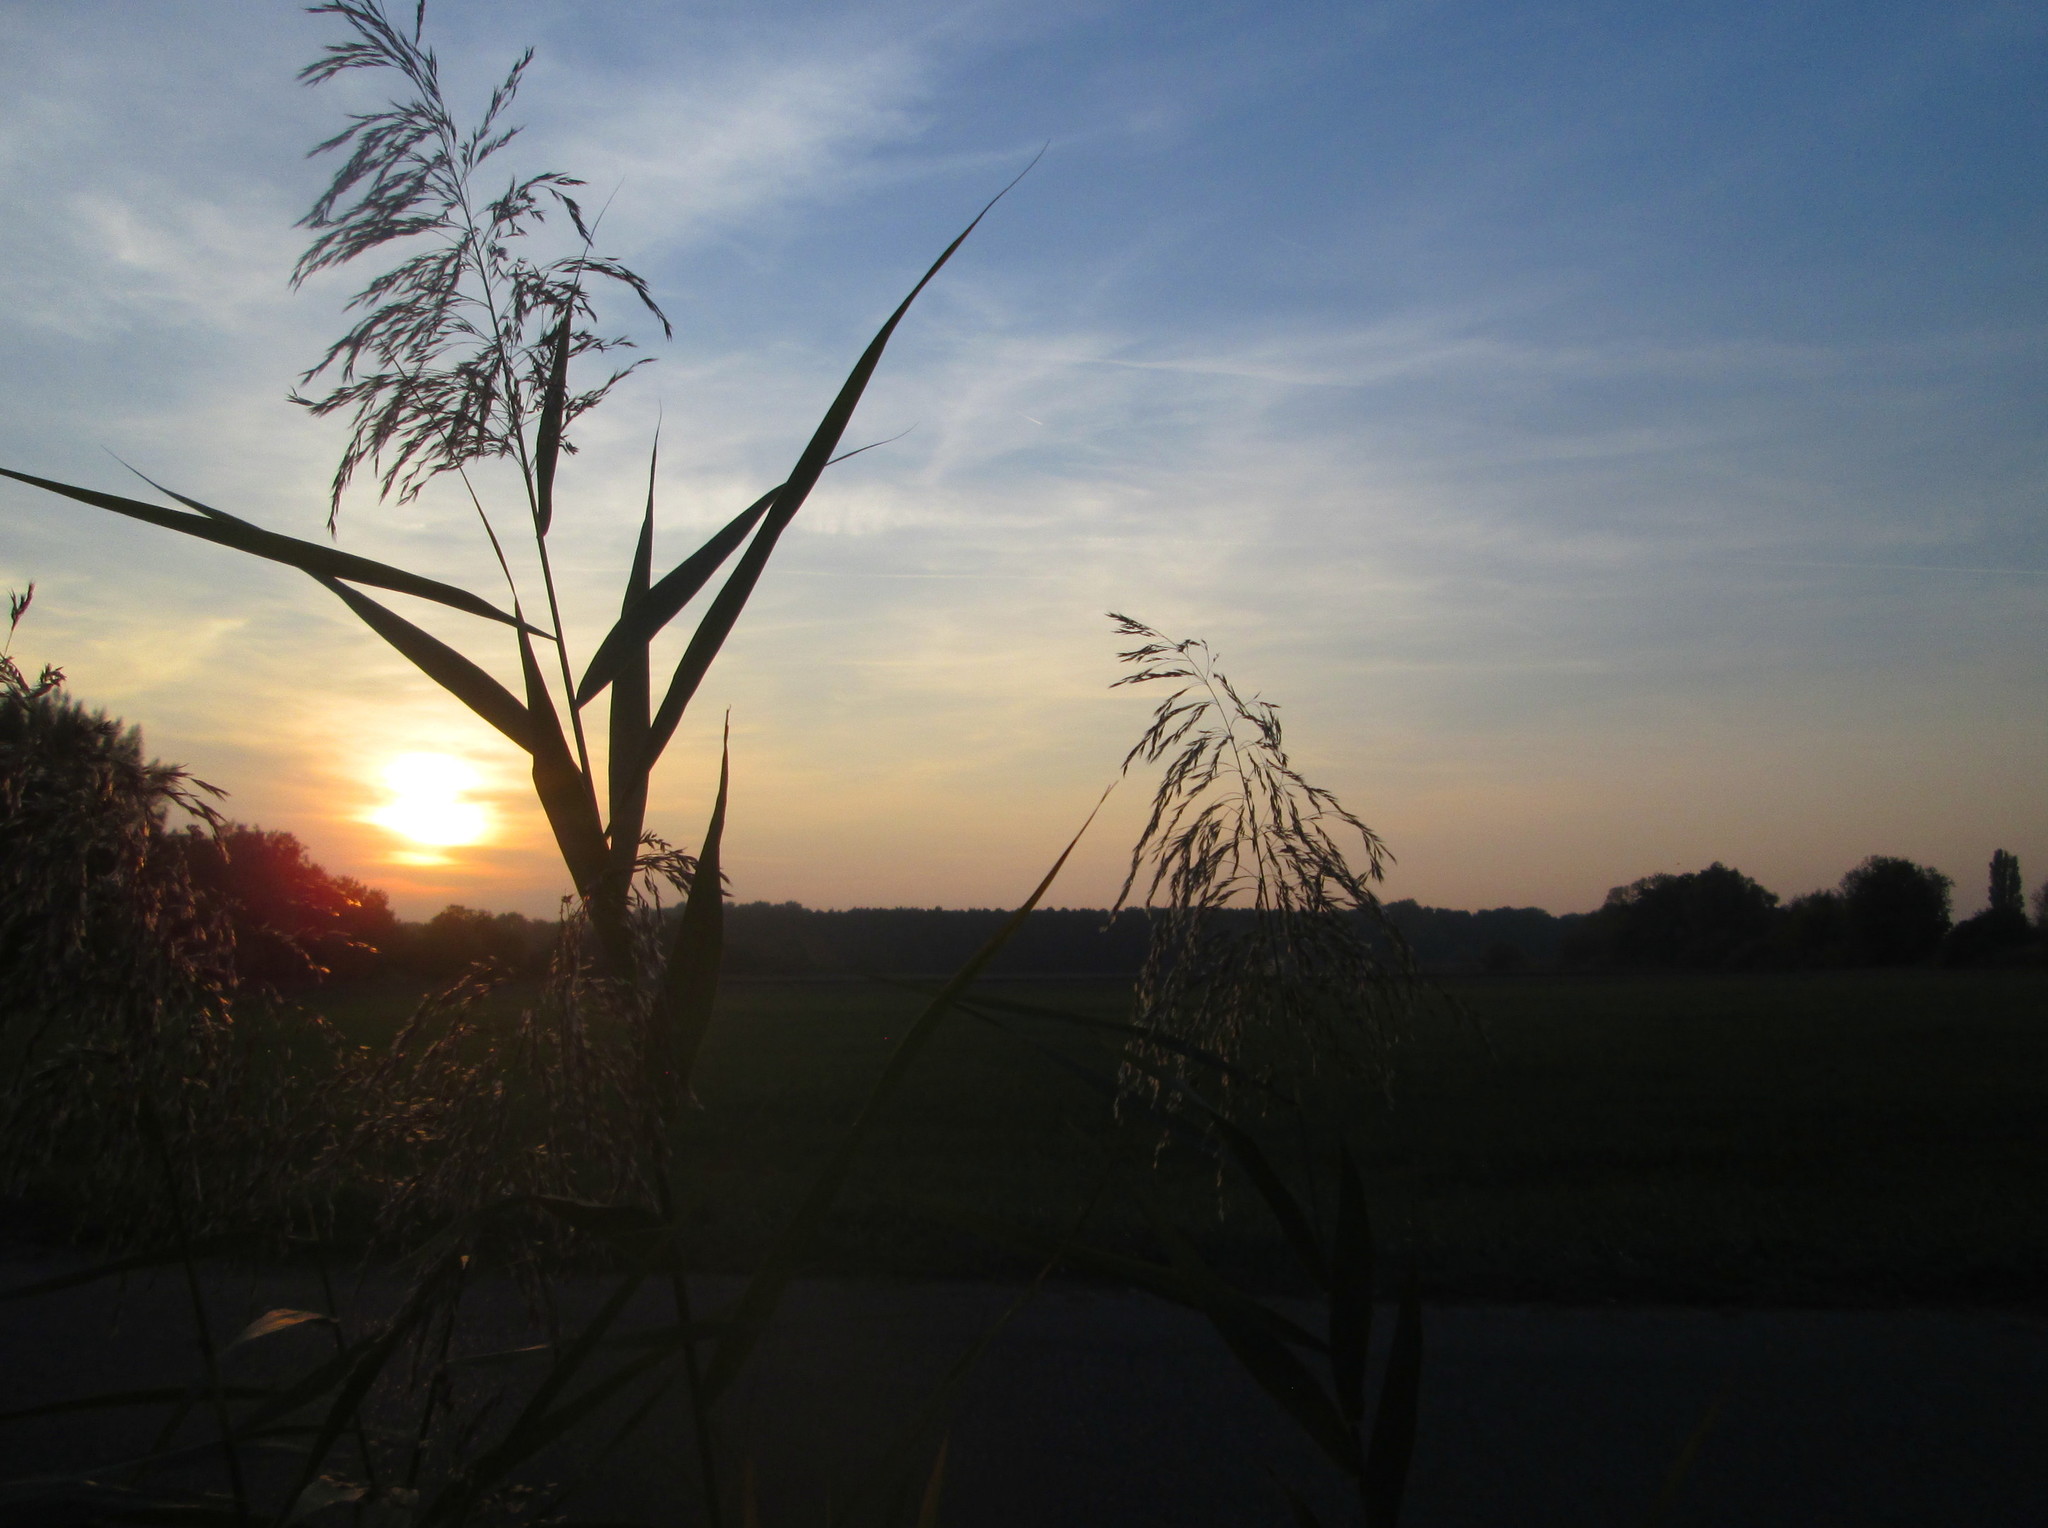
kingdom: Plantae
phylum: Tracheophyta
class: Liliopsida
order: Poales
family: Poaceae
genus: Phragmites
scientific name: Phragmites australis
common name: Common reed
